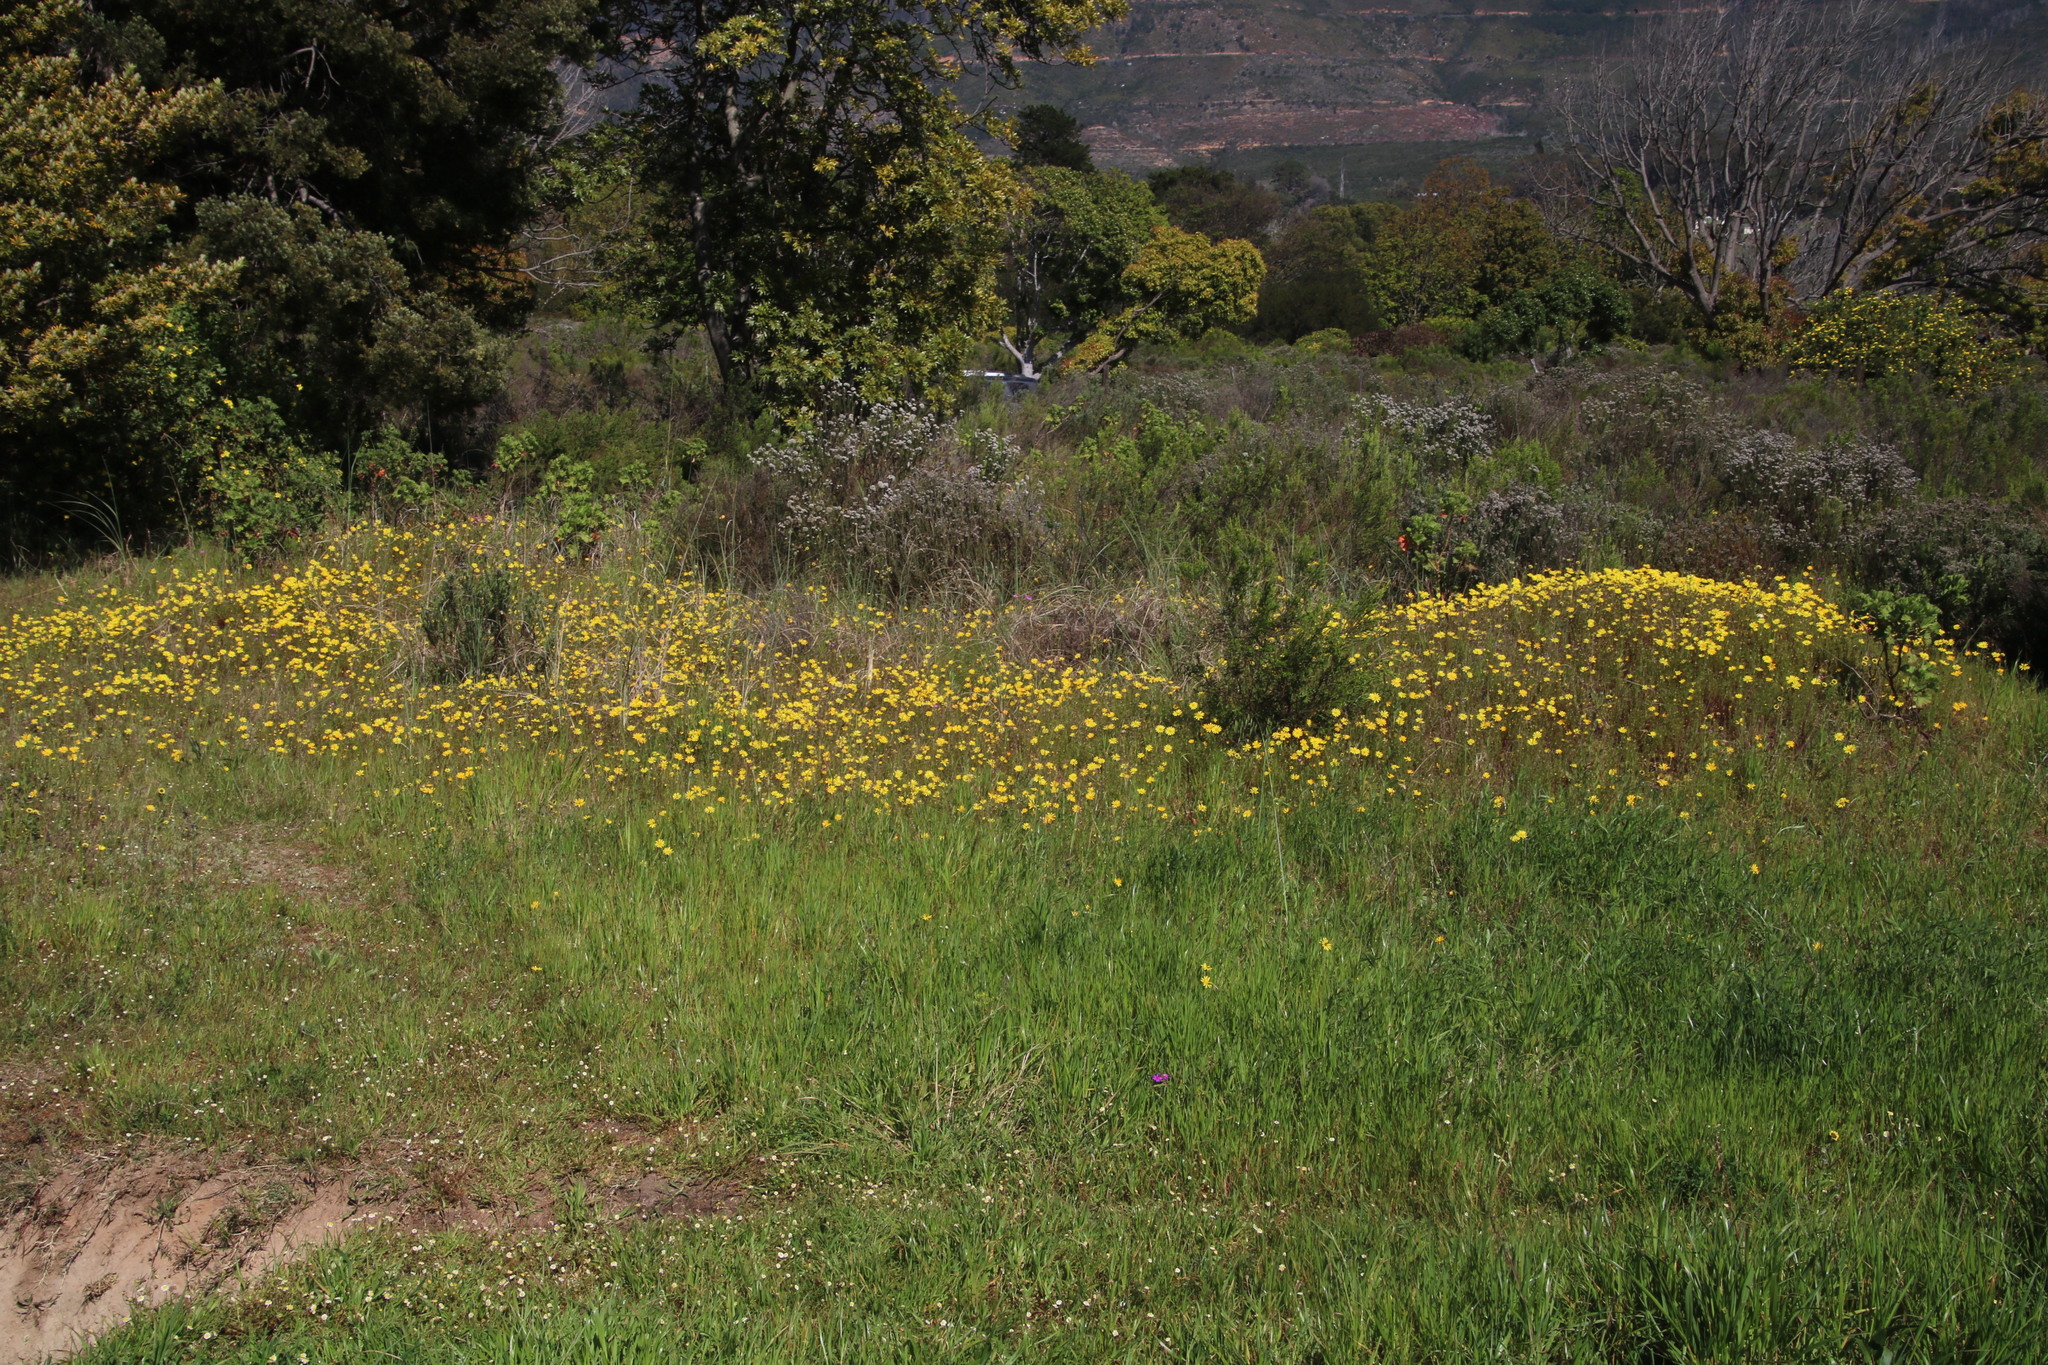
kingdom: Plantae
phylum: Tracheophyta
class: Magnoliopsida
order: Asterales
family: Asteraceae
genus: Ursinia
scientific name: Ursinia anthemoides
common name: Ursinia
